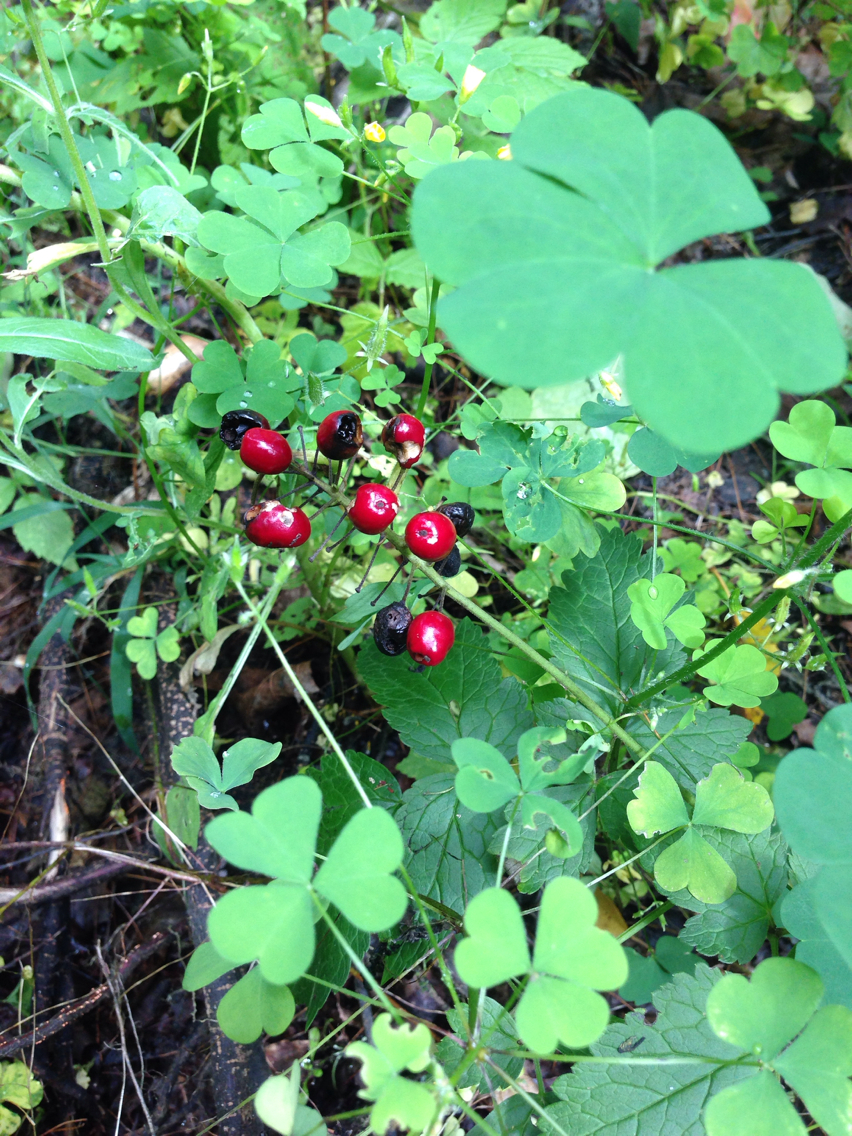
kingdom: Plantae
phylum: Tracheophyta
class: Magnoliopsida
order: Ranunculales
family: Ranunculaceae
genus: Actaea
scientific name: Actaea rubra
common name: Red baneberry
